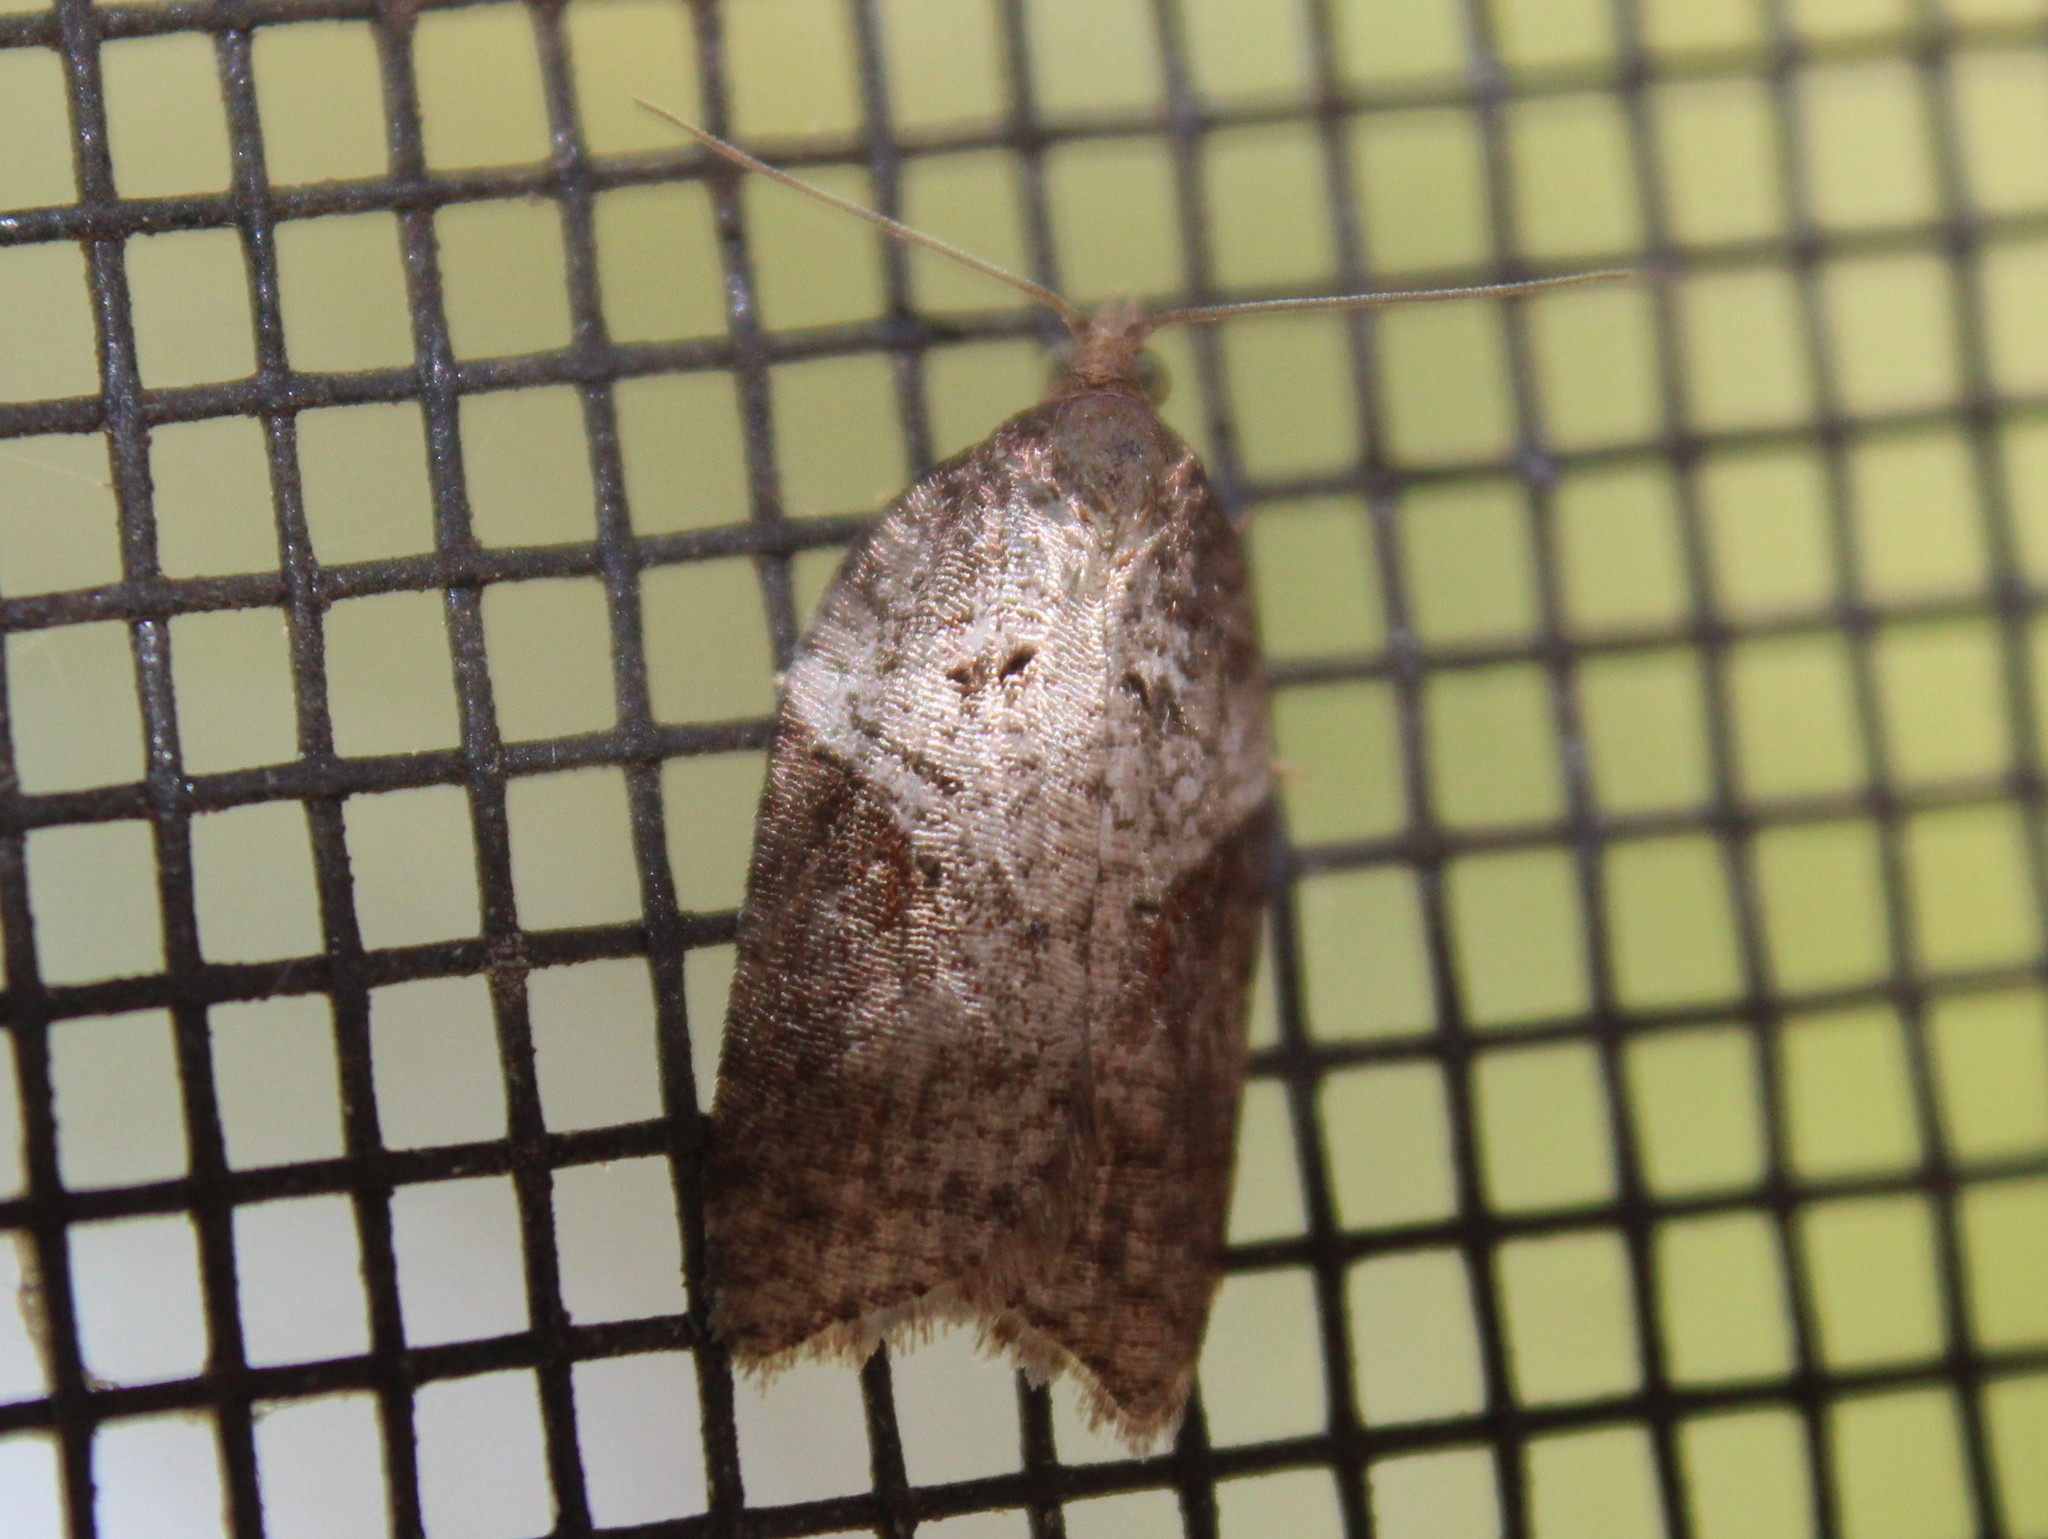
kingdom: Animalia
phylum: Arthropoda
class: Insecta
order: Lepidoptera
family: Tortricidae
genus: Acleris
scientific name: Acleris macdunnoughi
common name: Macdunnough's acleris
